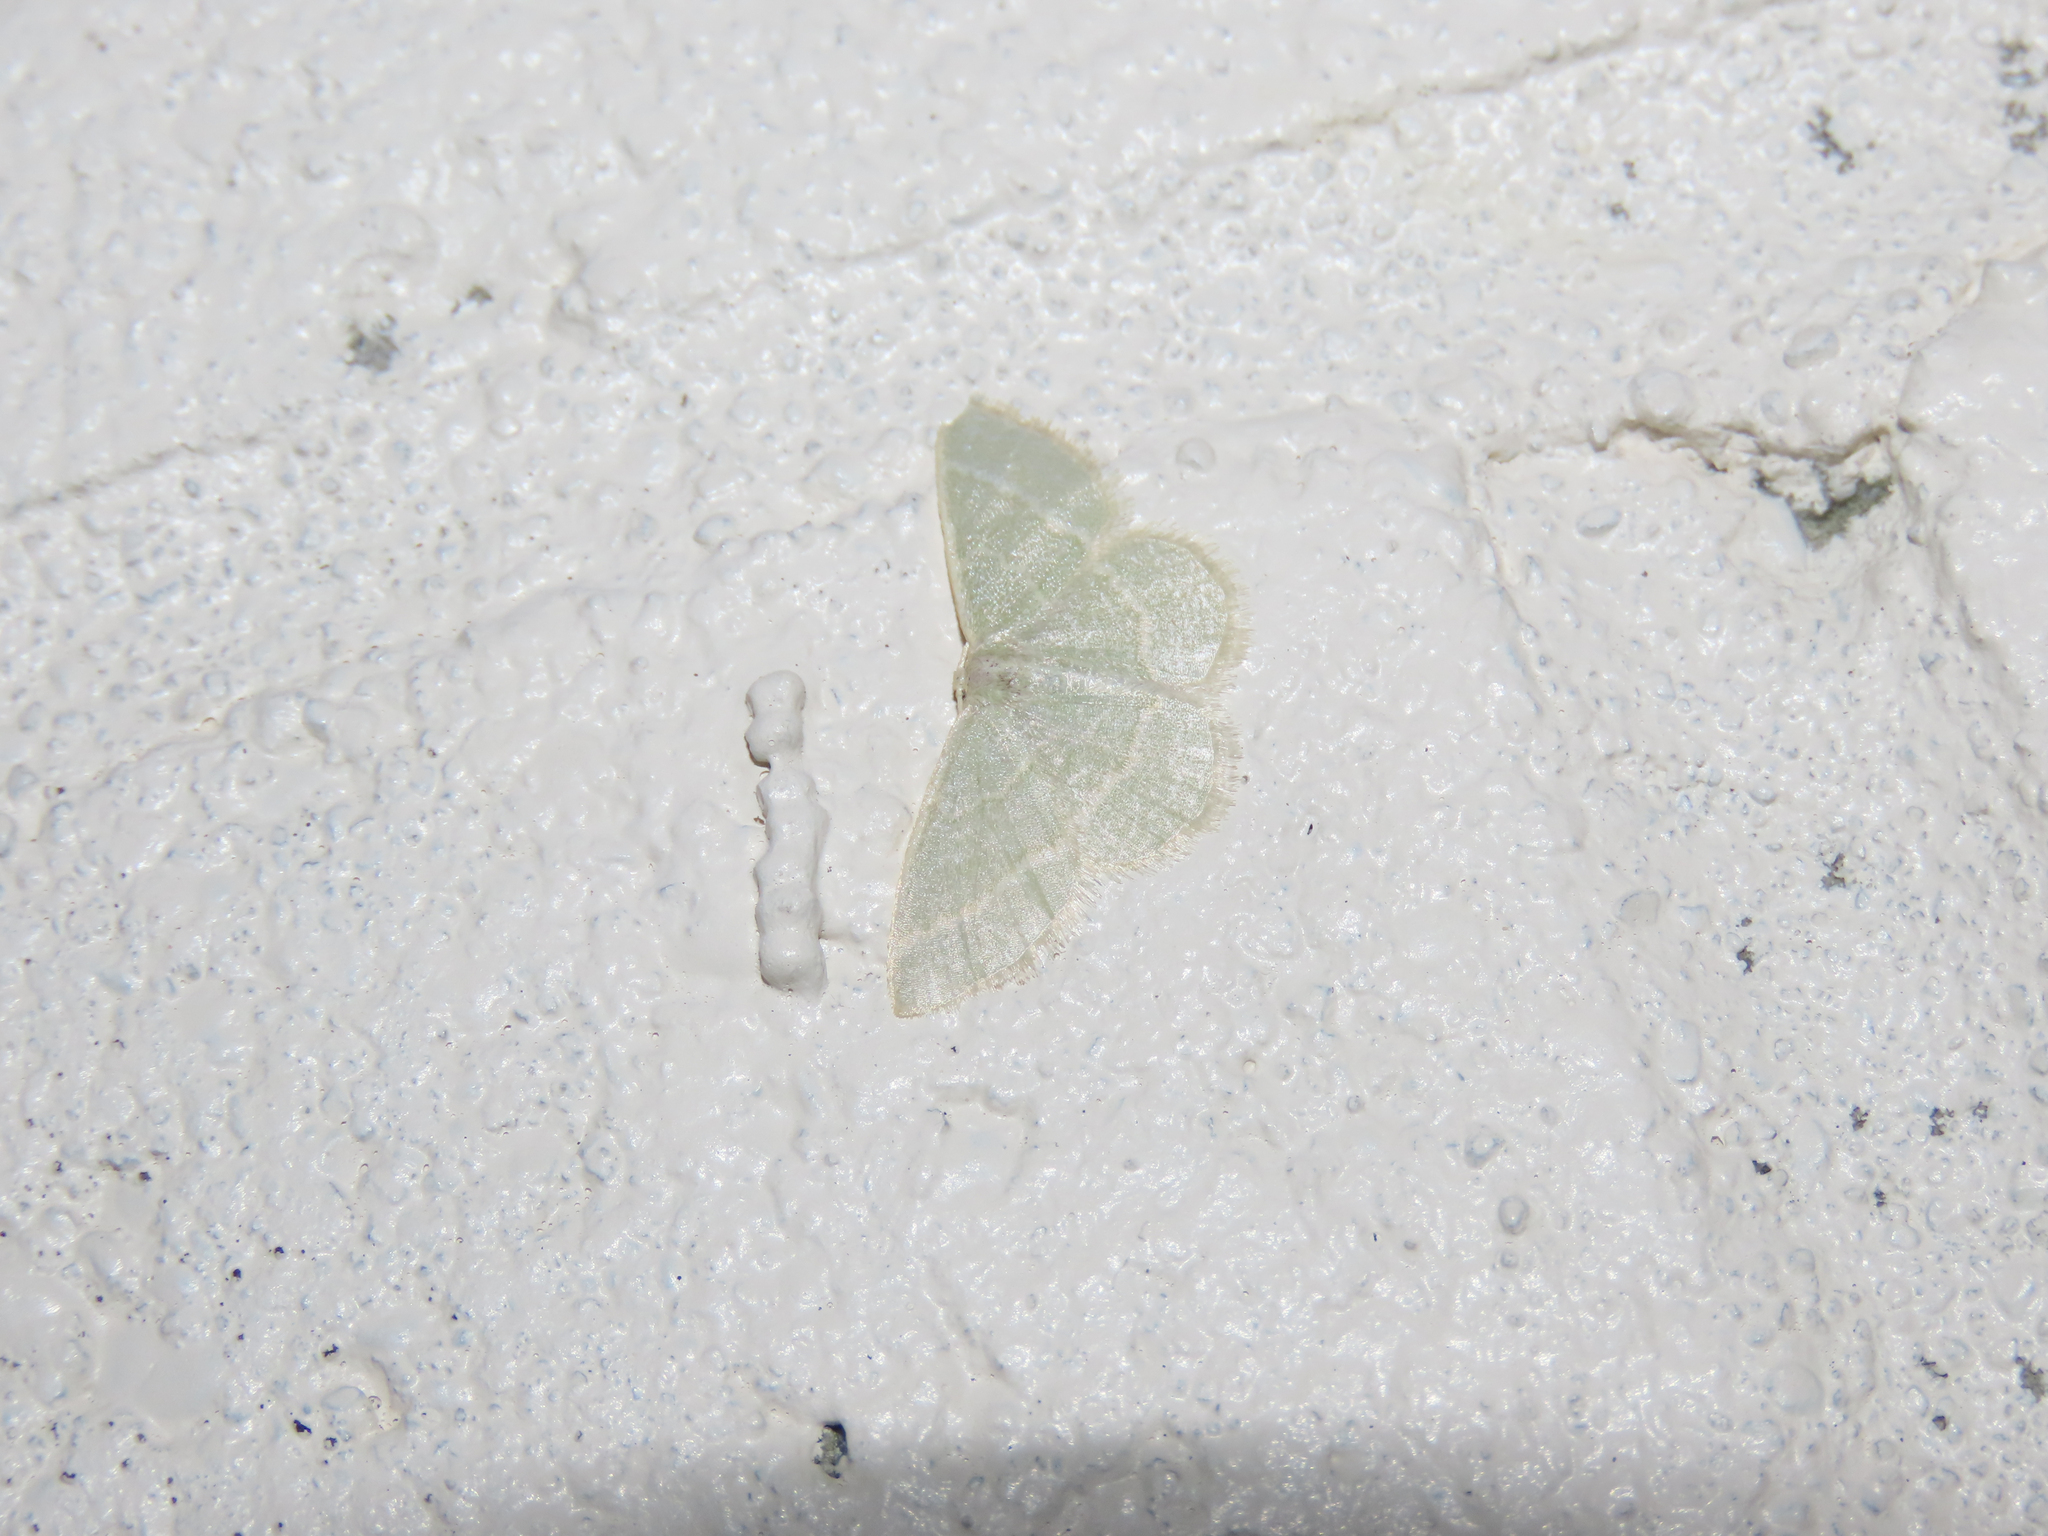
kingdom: Animalia
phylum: Arthropoda
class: Insecta
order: Lepidoptera
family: Geometridae
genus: Chlorochlamys
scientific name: Chlorochlamys chloroleucaria
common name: Blackberry looper
